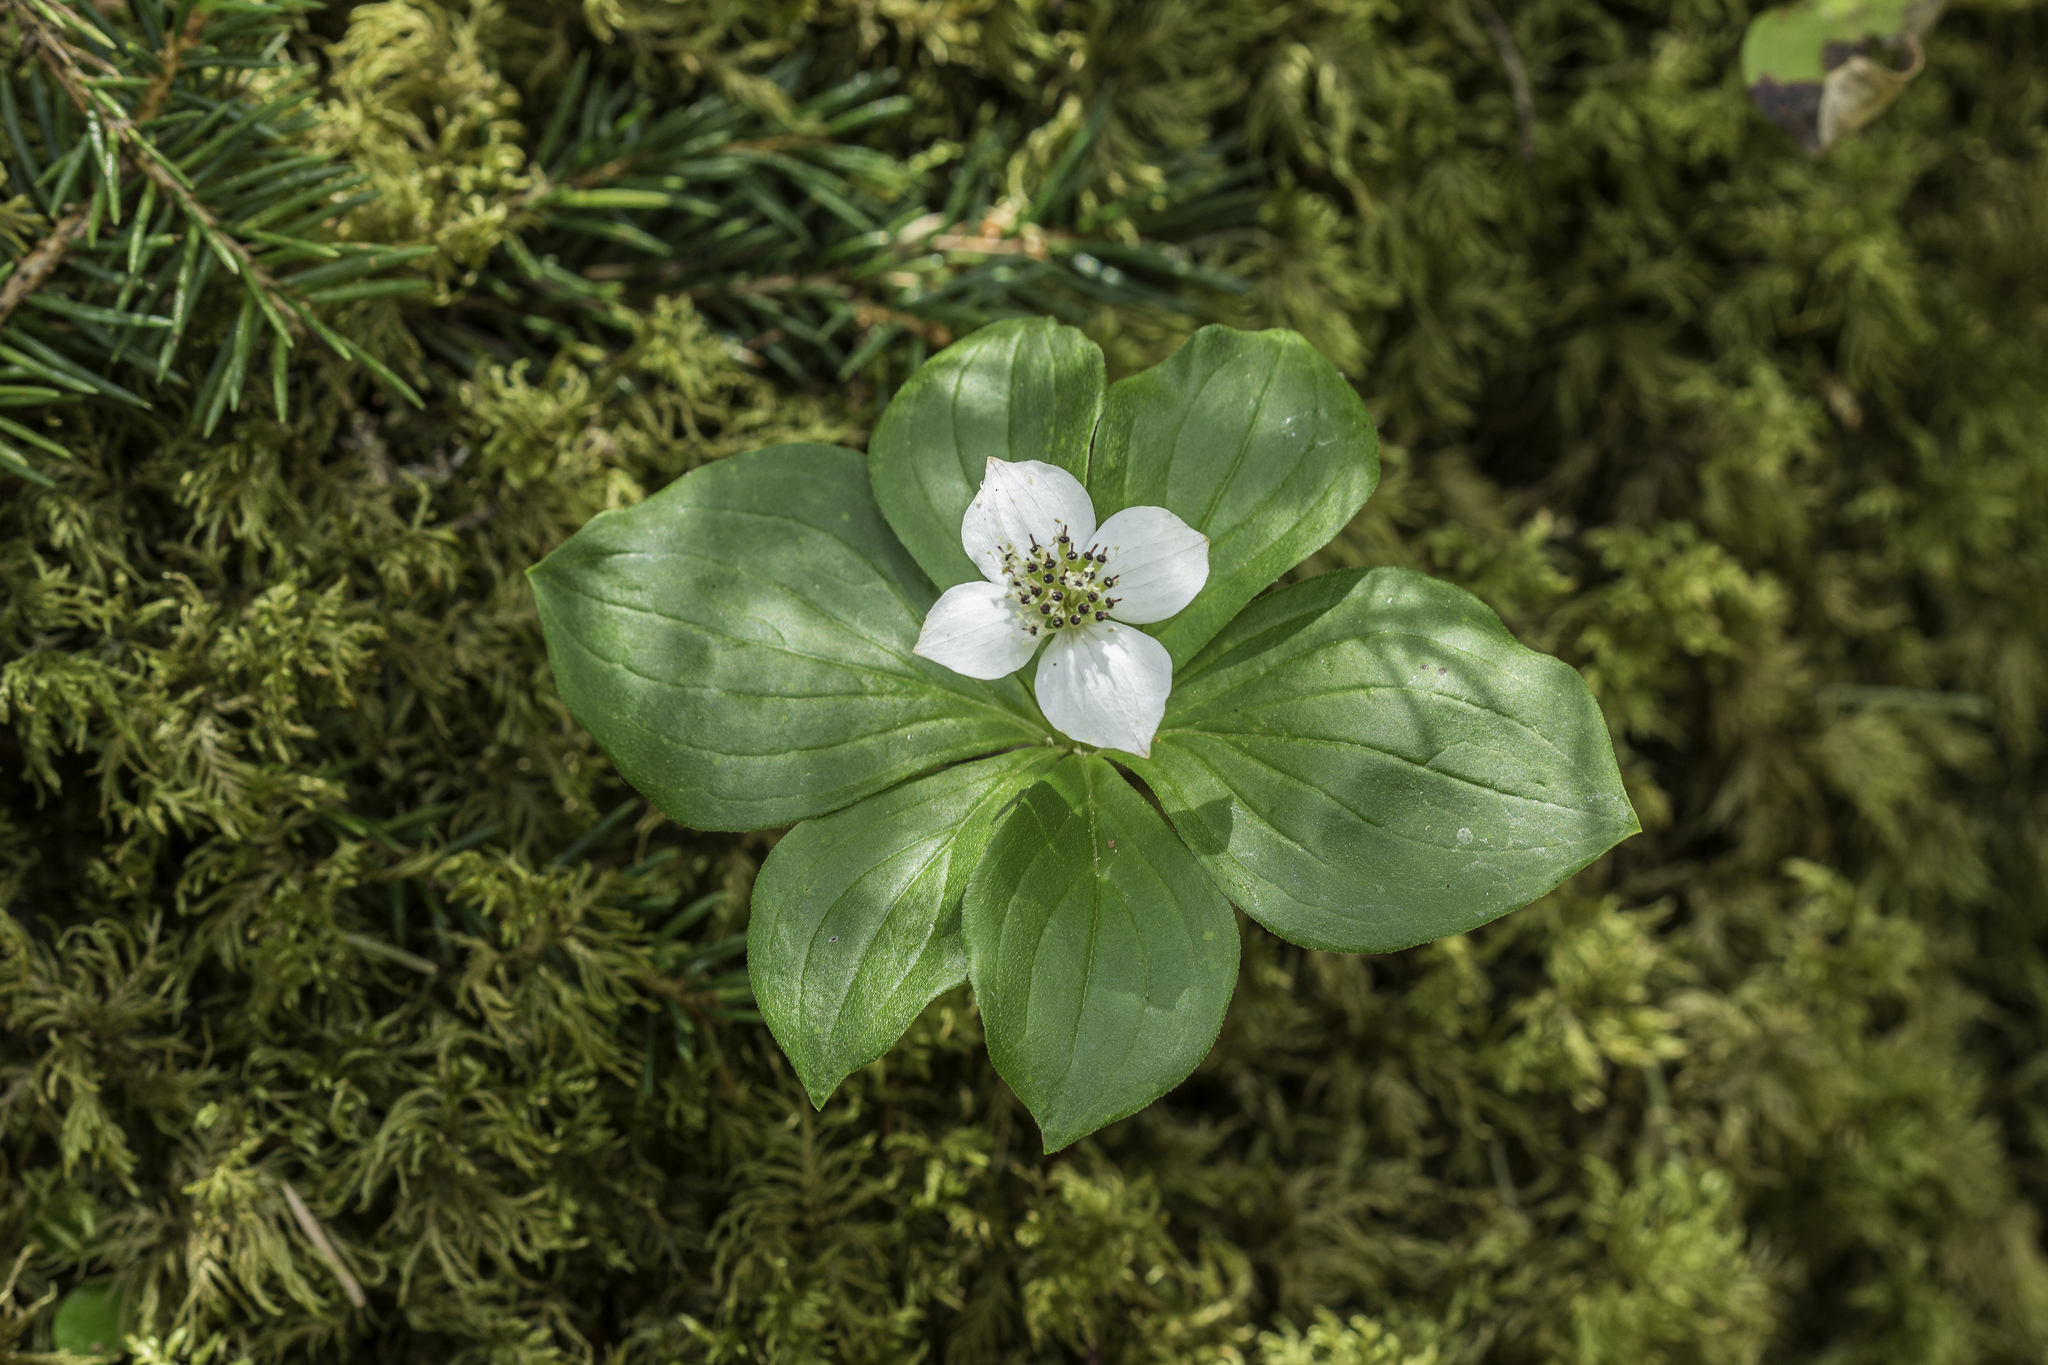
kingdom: Plantae
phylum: Tracheophyta
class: Magnoliopsida
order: Cornales
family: Cornaceae
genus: Cornus
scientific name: Cornus canadensis
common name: Creeping dogwood
